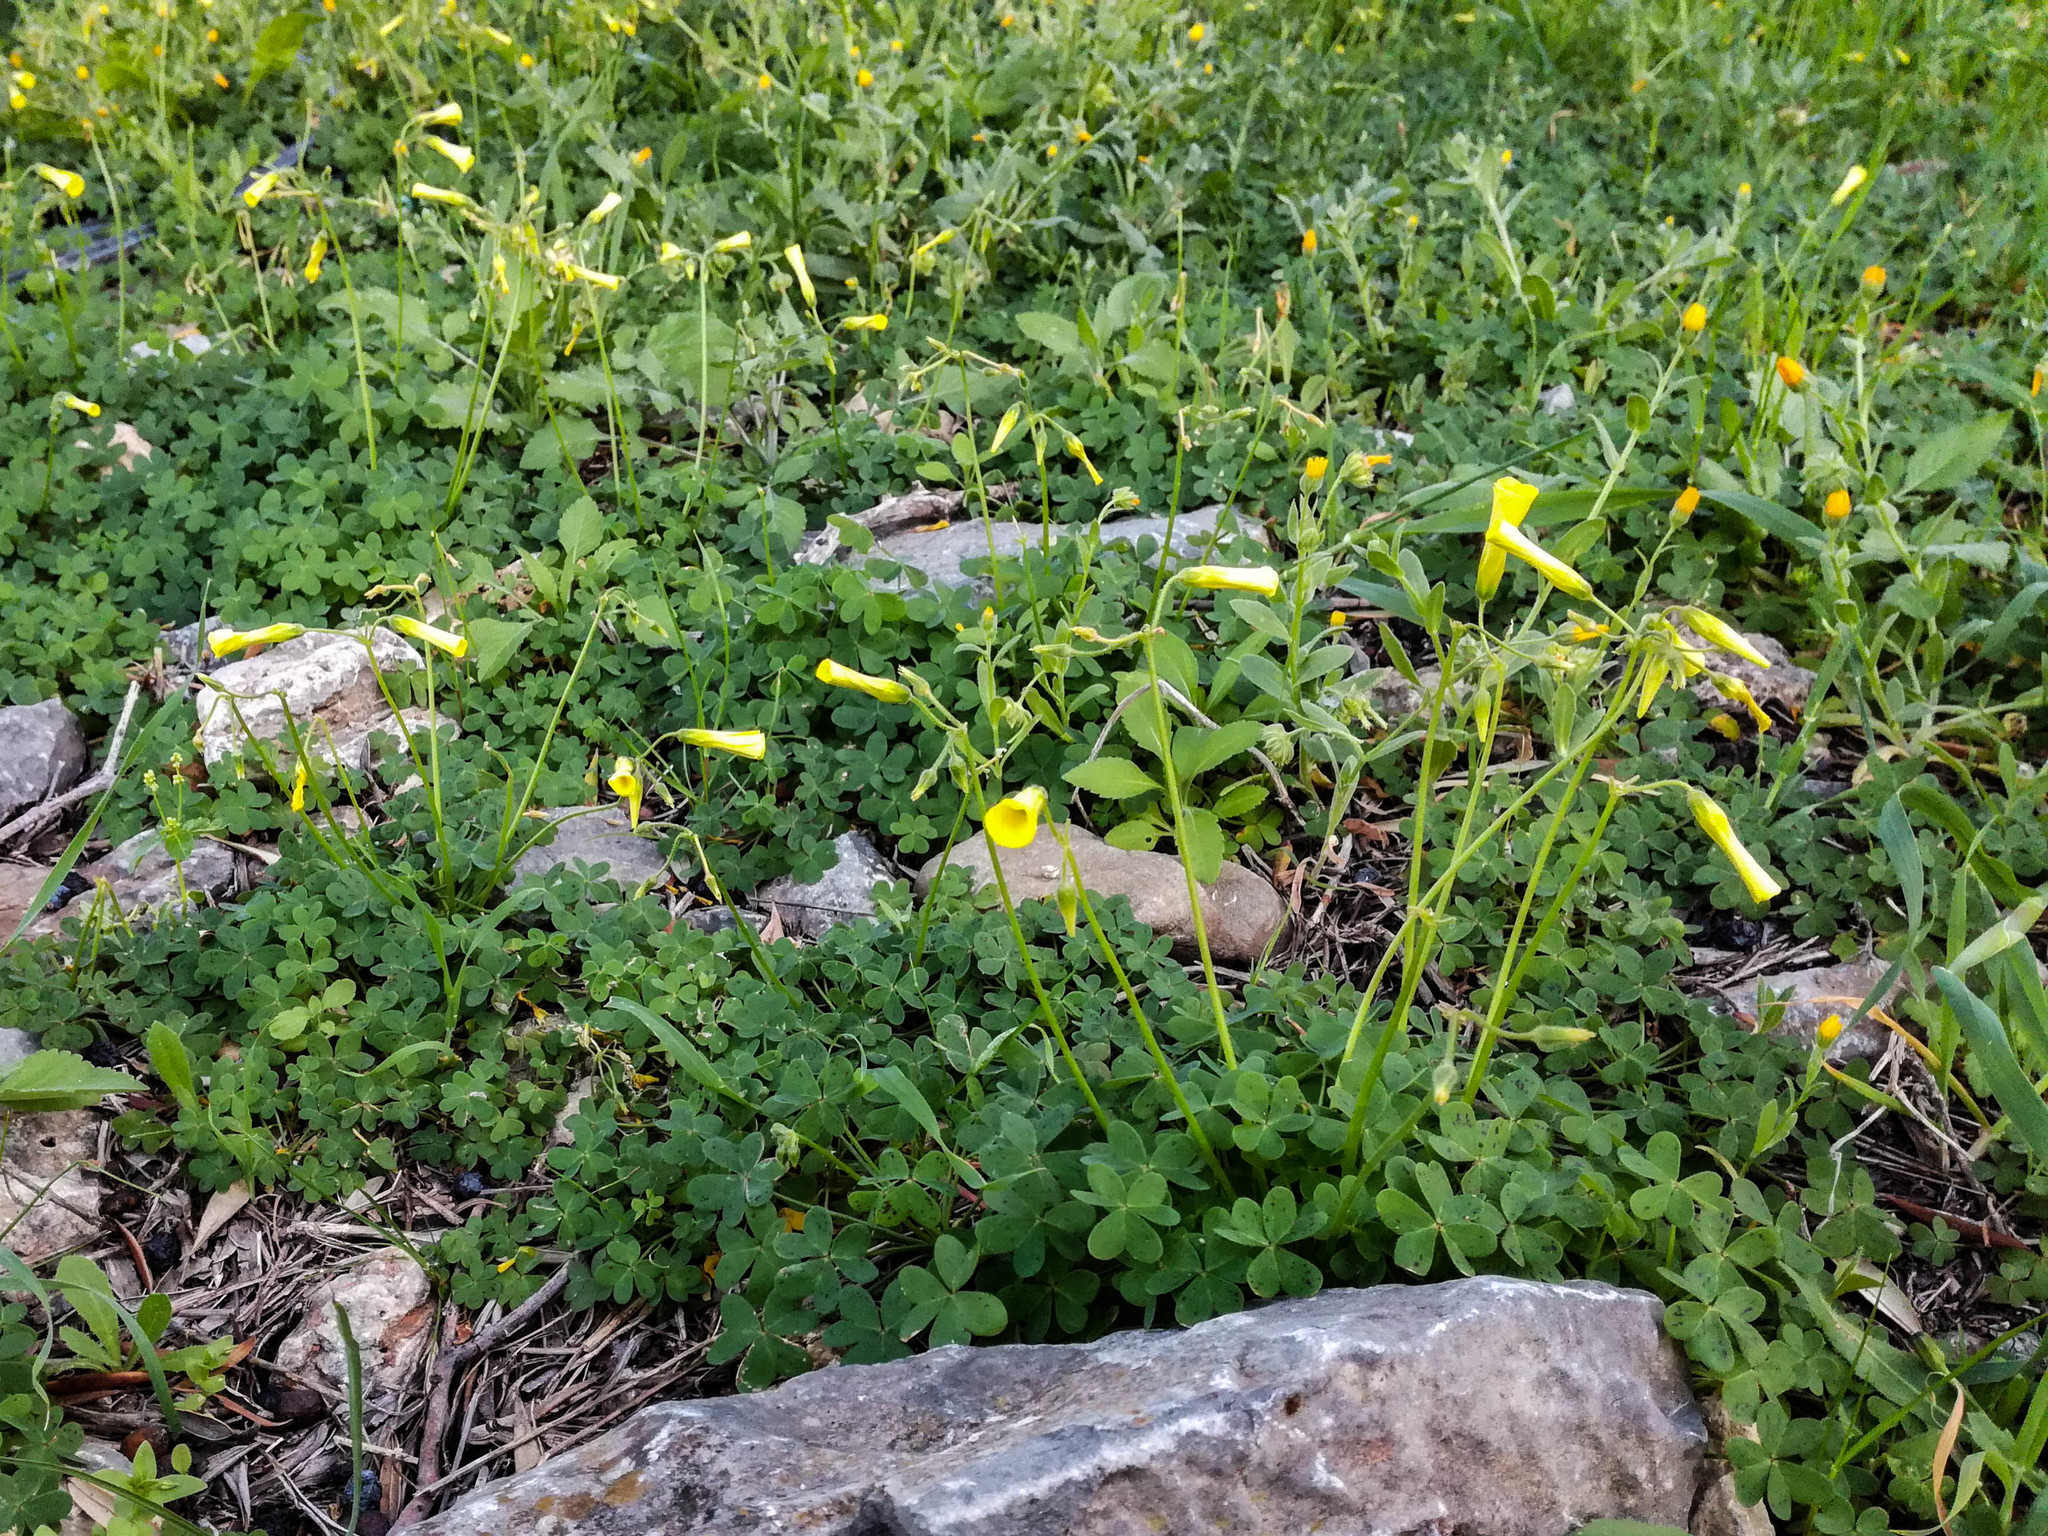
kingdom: Plantae
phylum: Tracheophyta
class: Magnoliopsida
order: Oxalidales
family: Oxalidaceae
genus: Oxalis
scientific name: Oxalis pes-caprae
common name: Bermuda-buttercup
